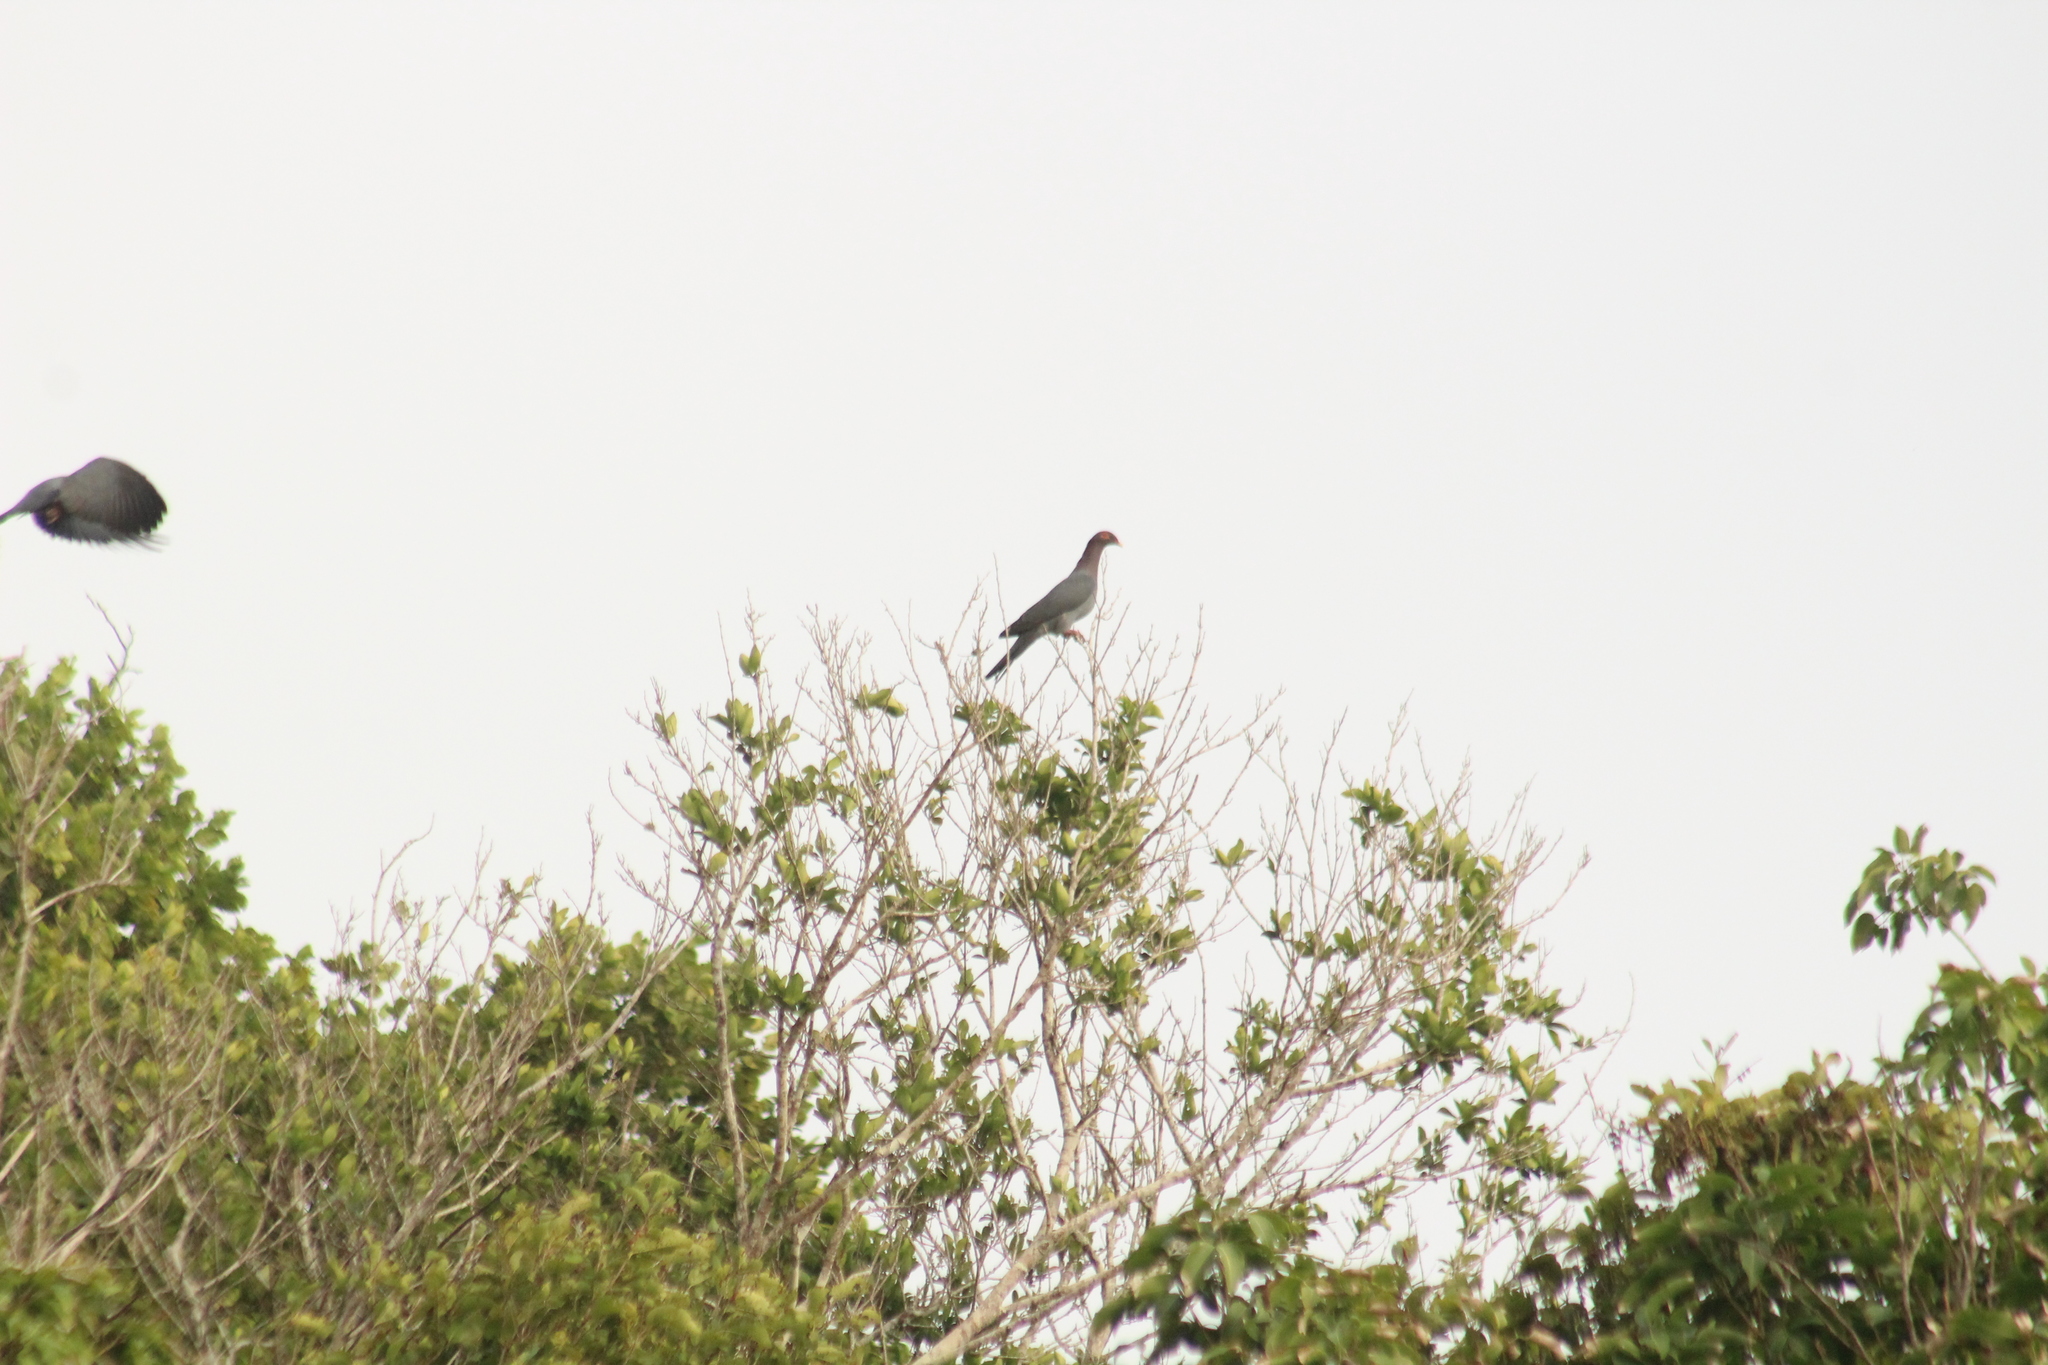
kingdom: Animalia
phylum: Chordata
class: Aves
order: Columbiformes
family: Columbidae
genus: Patagioenas
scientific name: Patagioenas squamosa
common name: Scaly-naped pigeon
